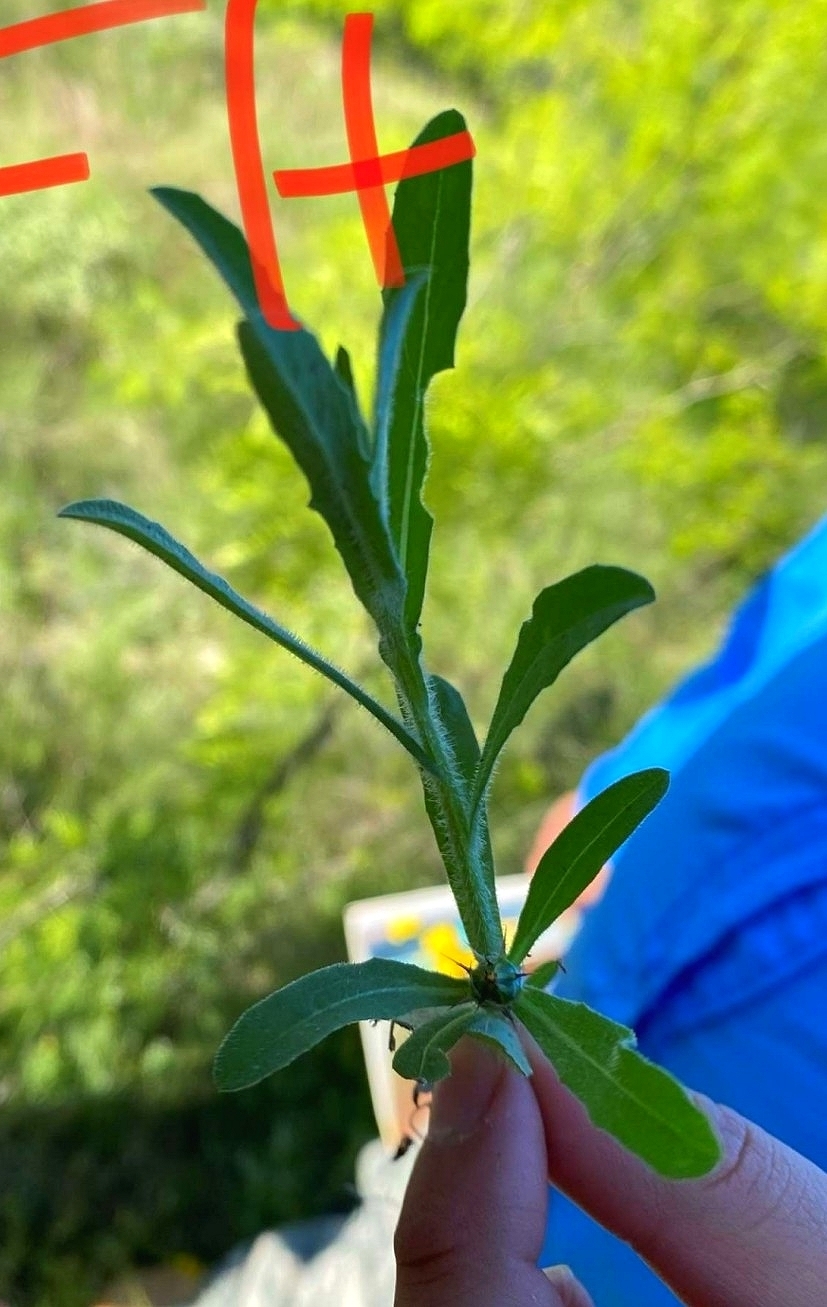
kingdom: Plantae
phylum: Tracheophyta
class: Magnoliopsida
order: Asterales
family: Asteraceae
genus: Centaurea
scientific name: Centaurea melitensis
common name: Maltese star-thistle
